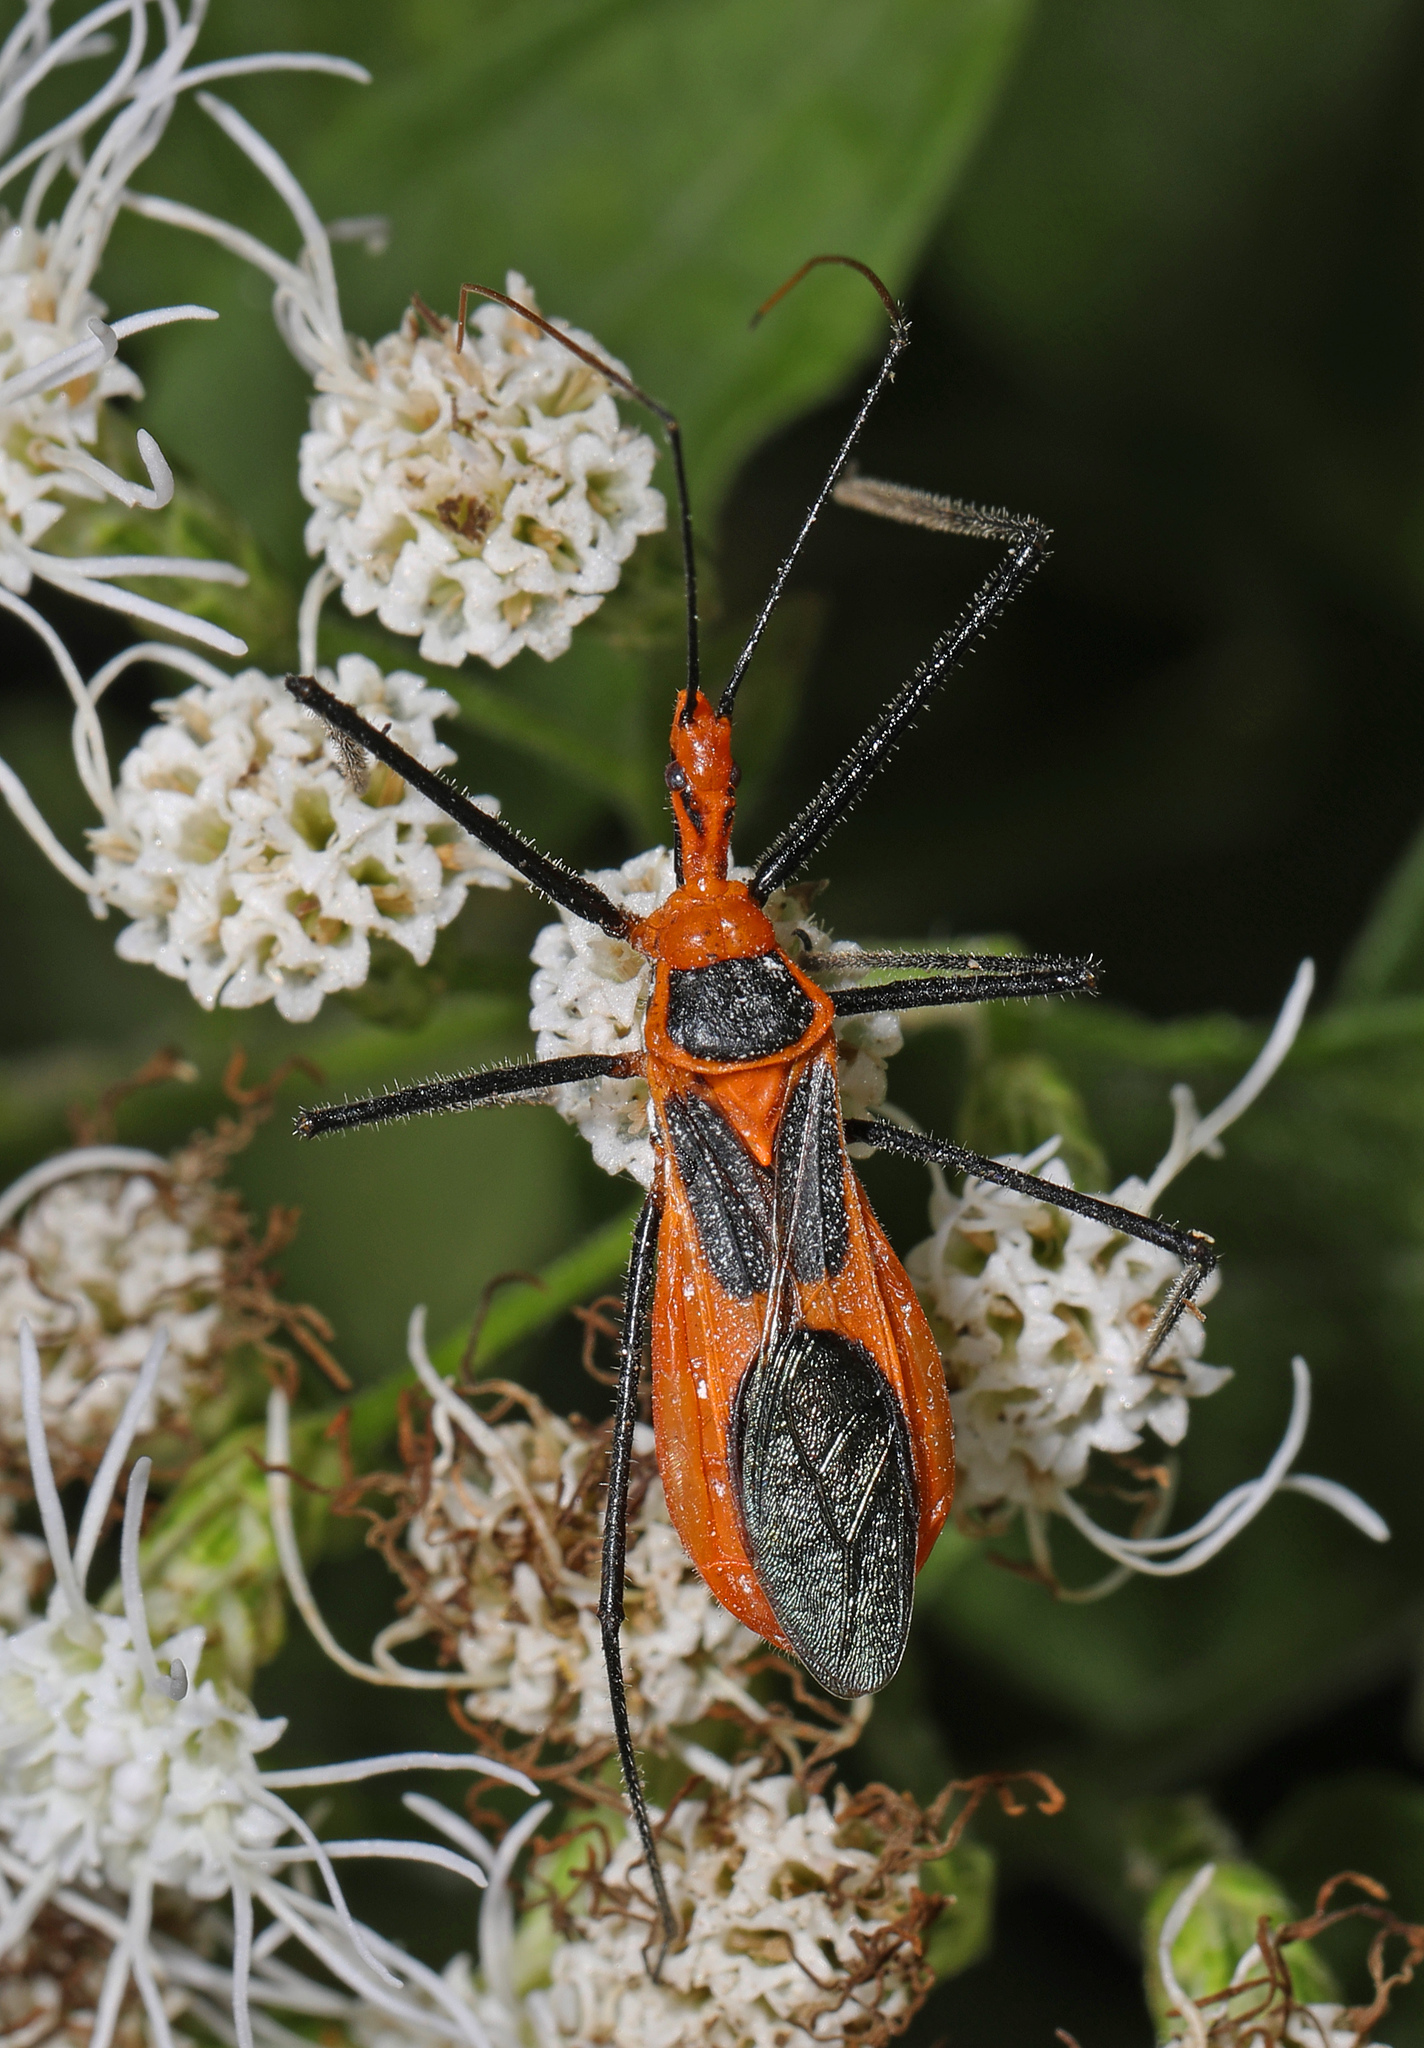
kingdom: Animalia
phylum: Arthropoda
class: Insecta
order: Hemiptera
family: Reduviidae
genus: Zelus
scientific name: Zelus longipes
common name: Milkweed assassin bug
